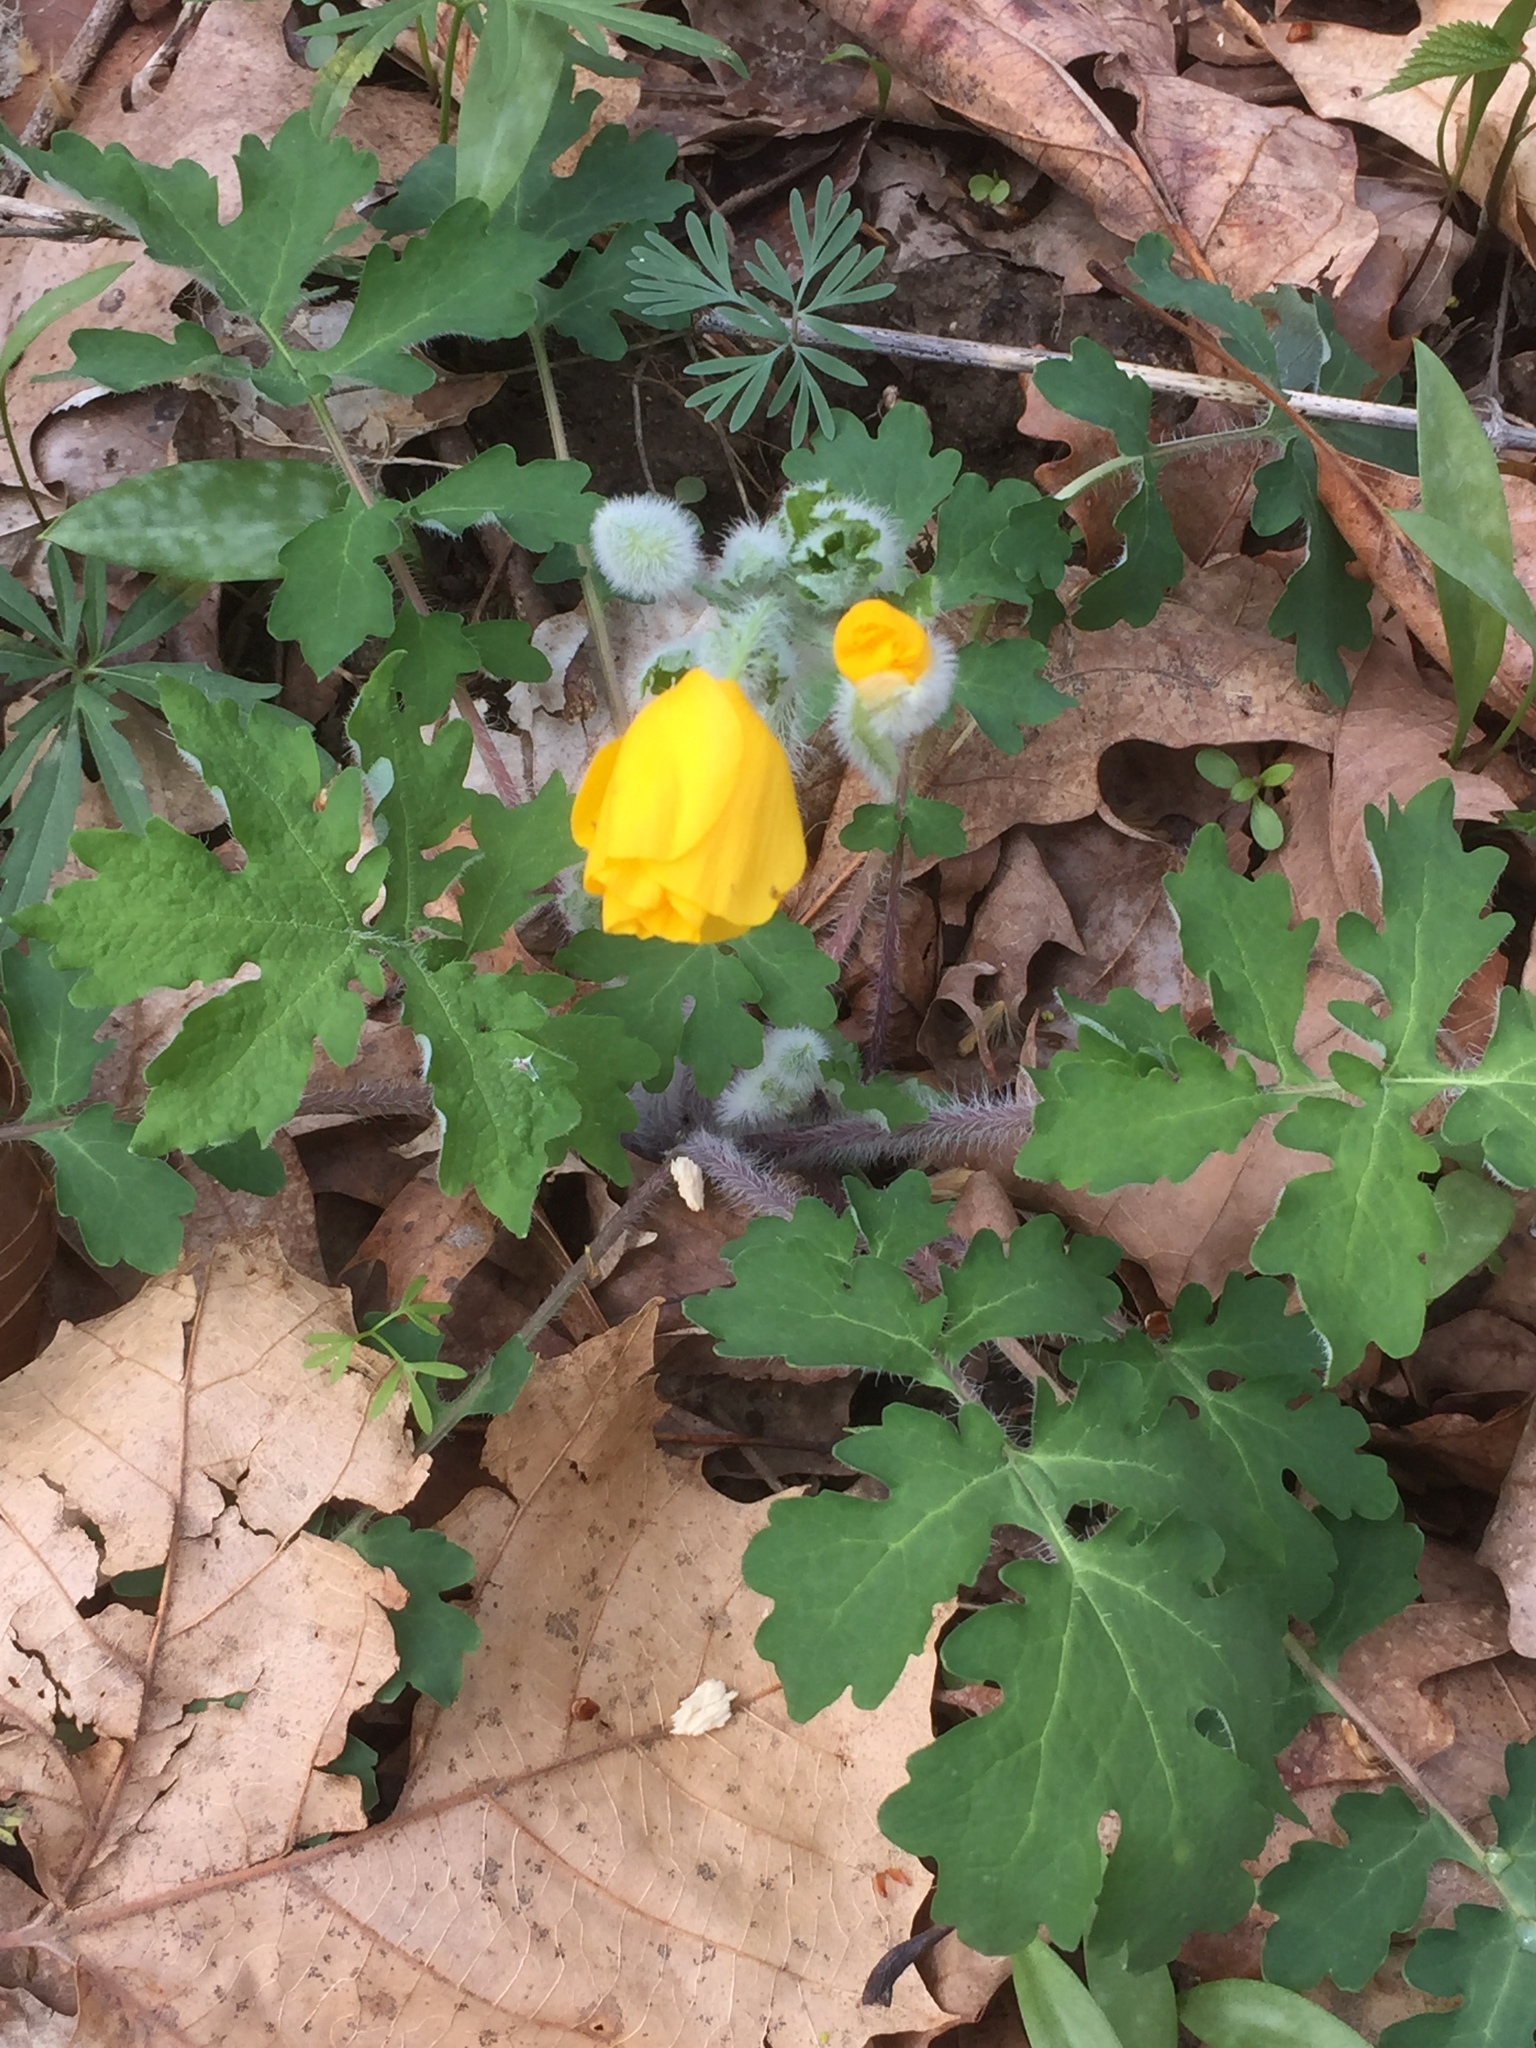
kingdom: Plantae
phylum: Tracheophyta
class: Magnoliopsida
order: Ranunculales
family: Papaveraceae
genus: Stylophorum
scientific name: Stylophorum diphyllum
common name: Celandine poppy
